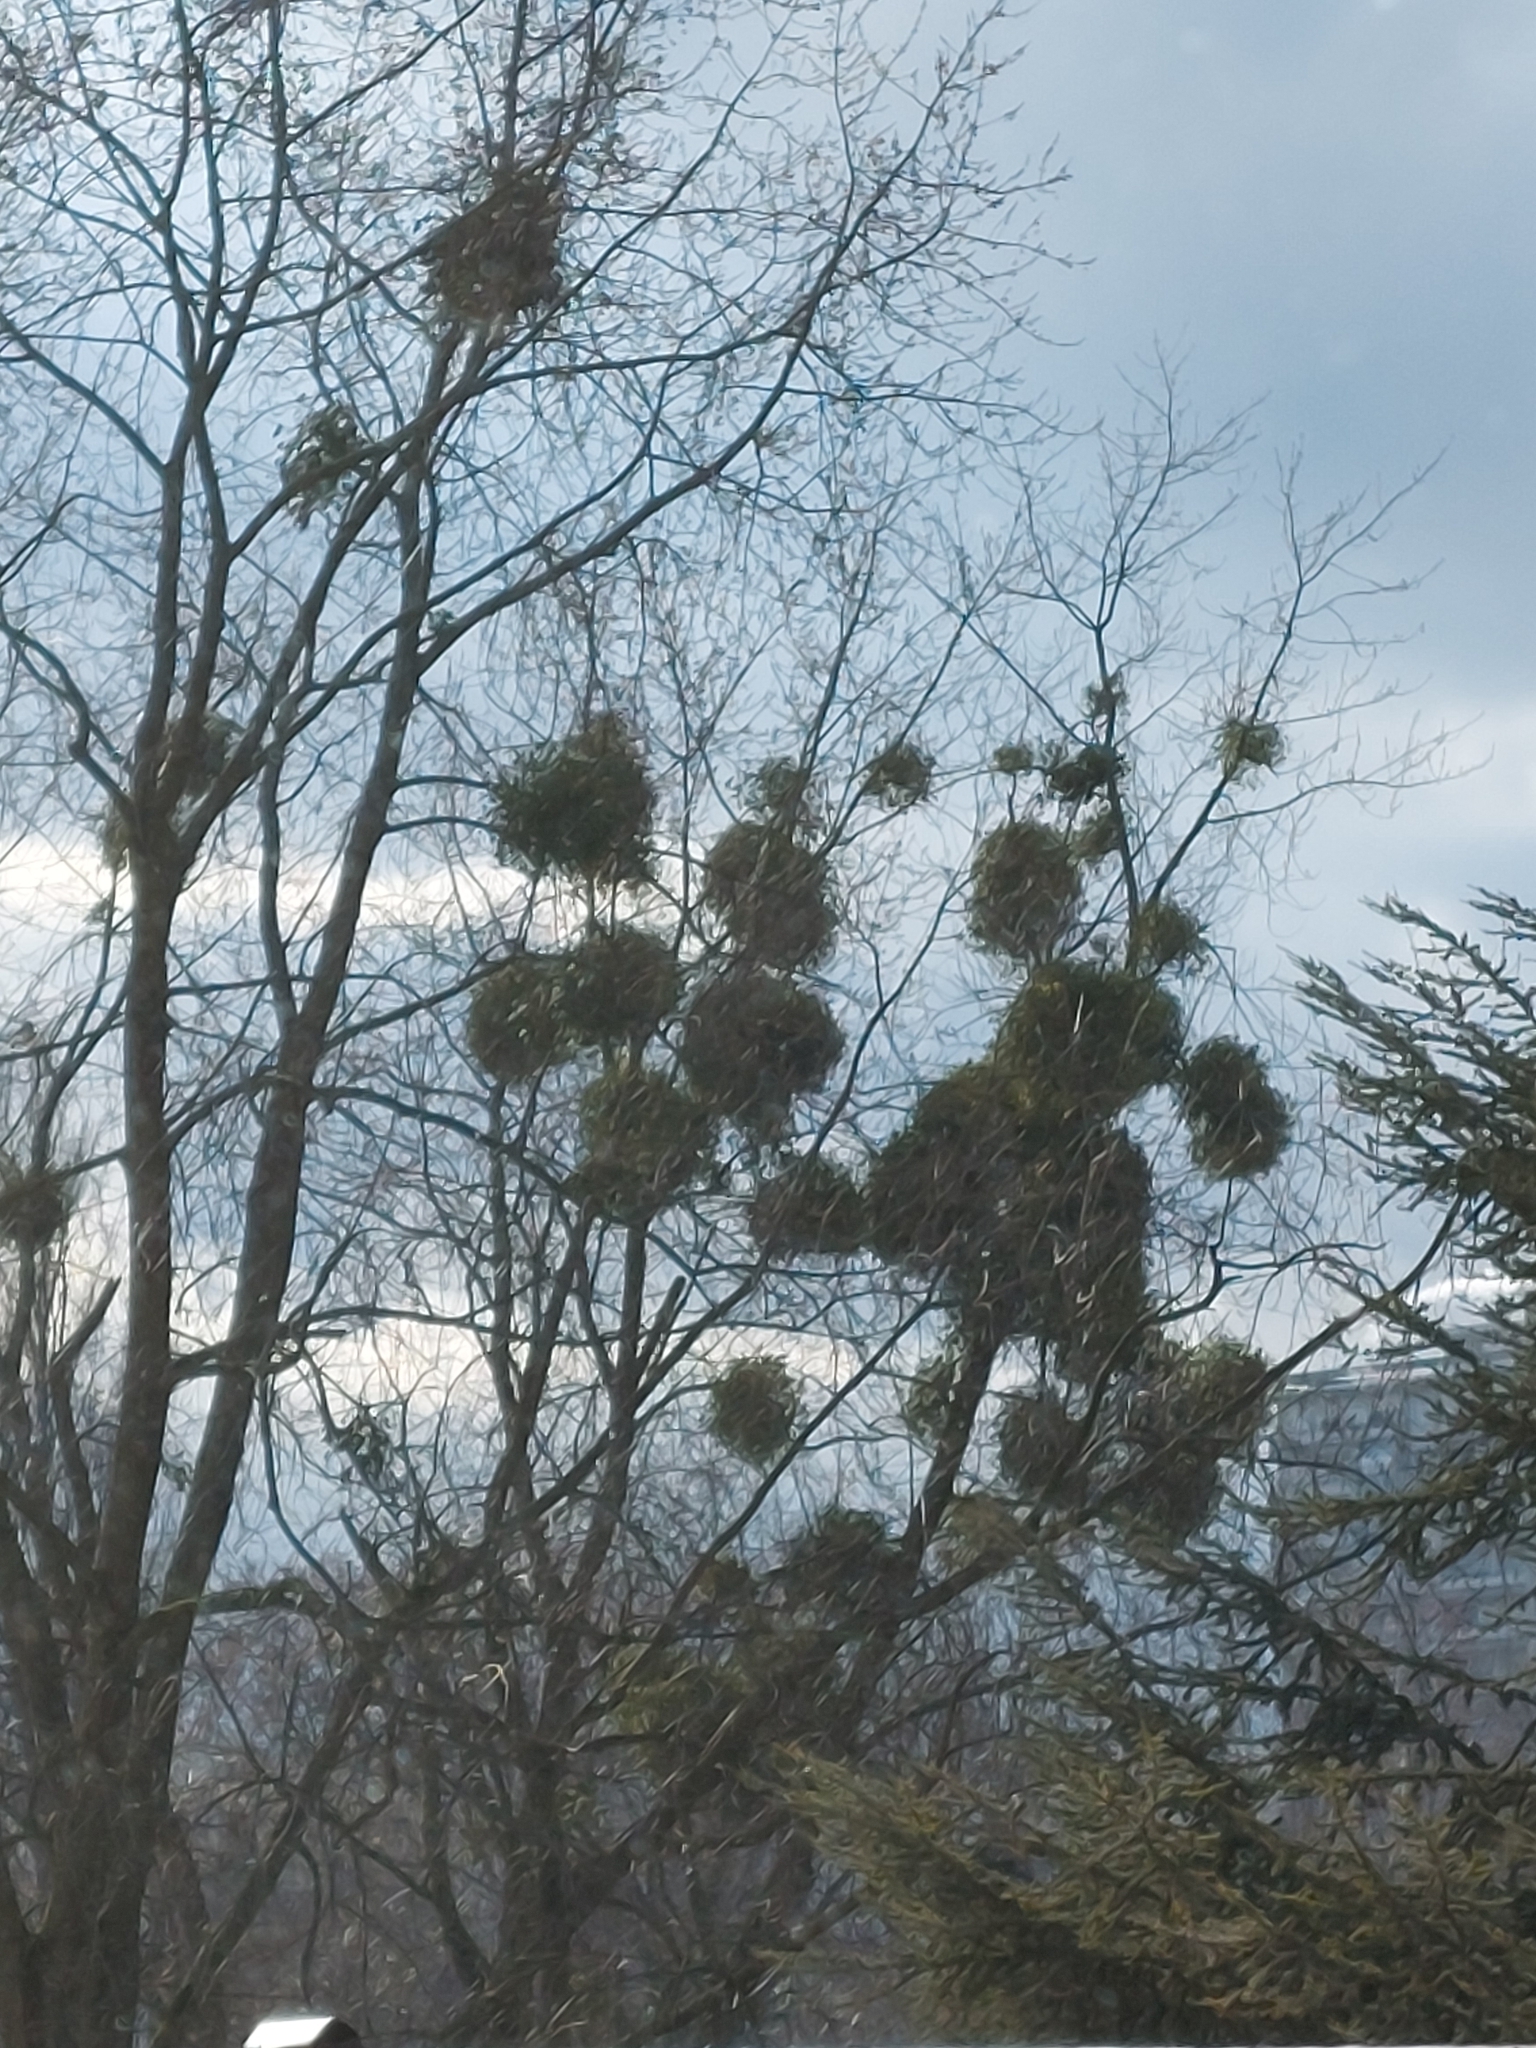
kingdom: Plantae
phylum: Tracheophyta
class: Magnoliopsida
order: Santalales
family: Viscaceae
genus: Viscum
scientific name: Viscum album
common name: Mistletoe
